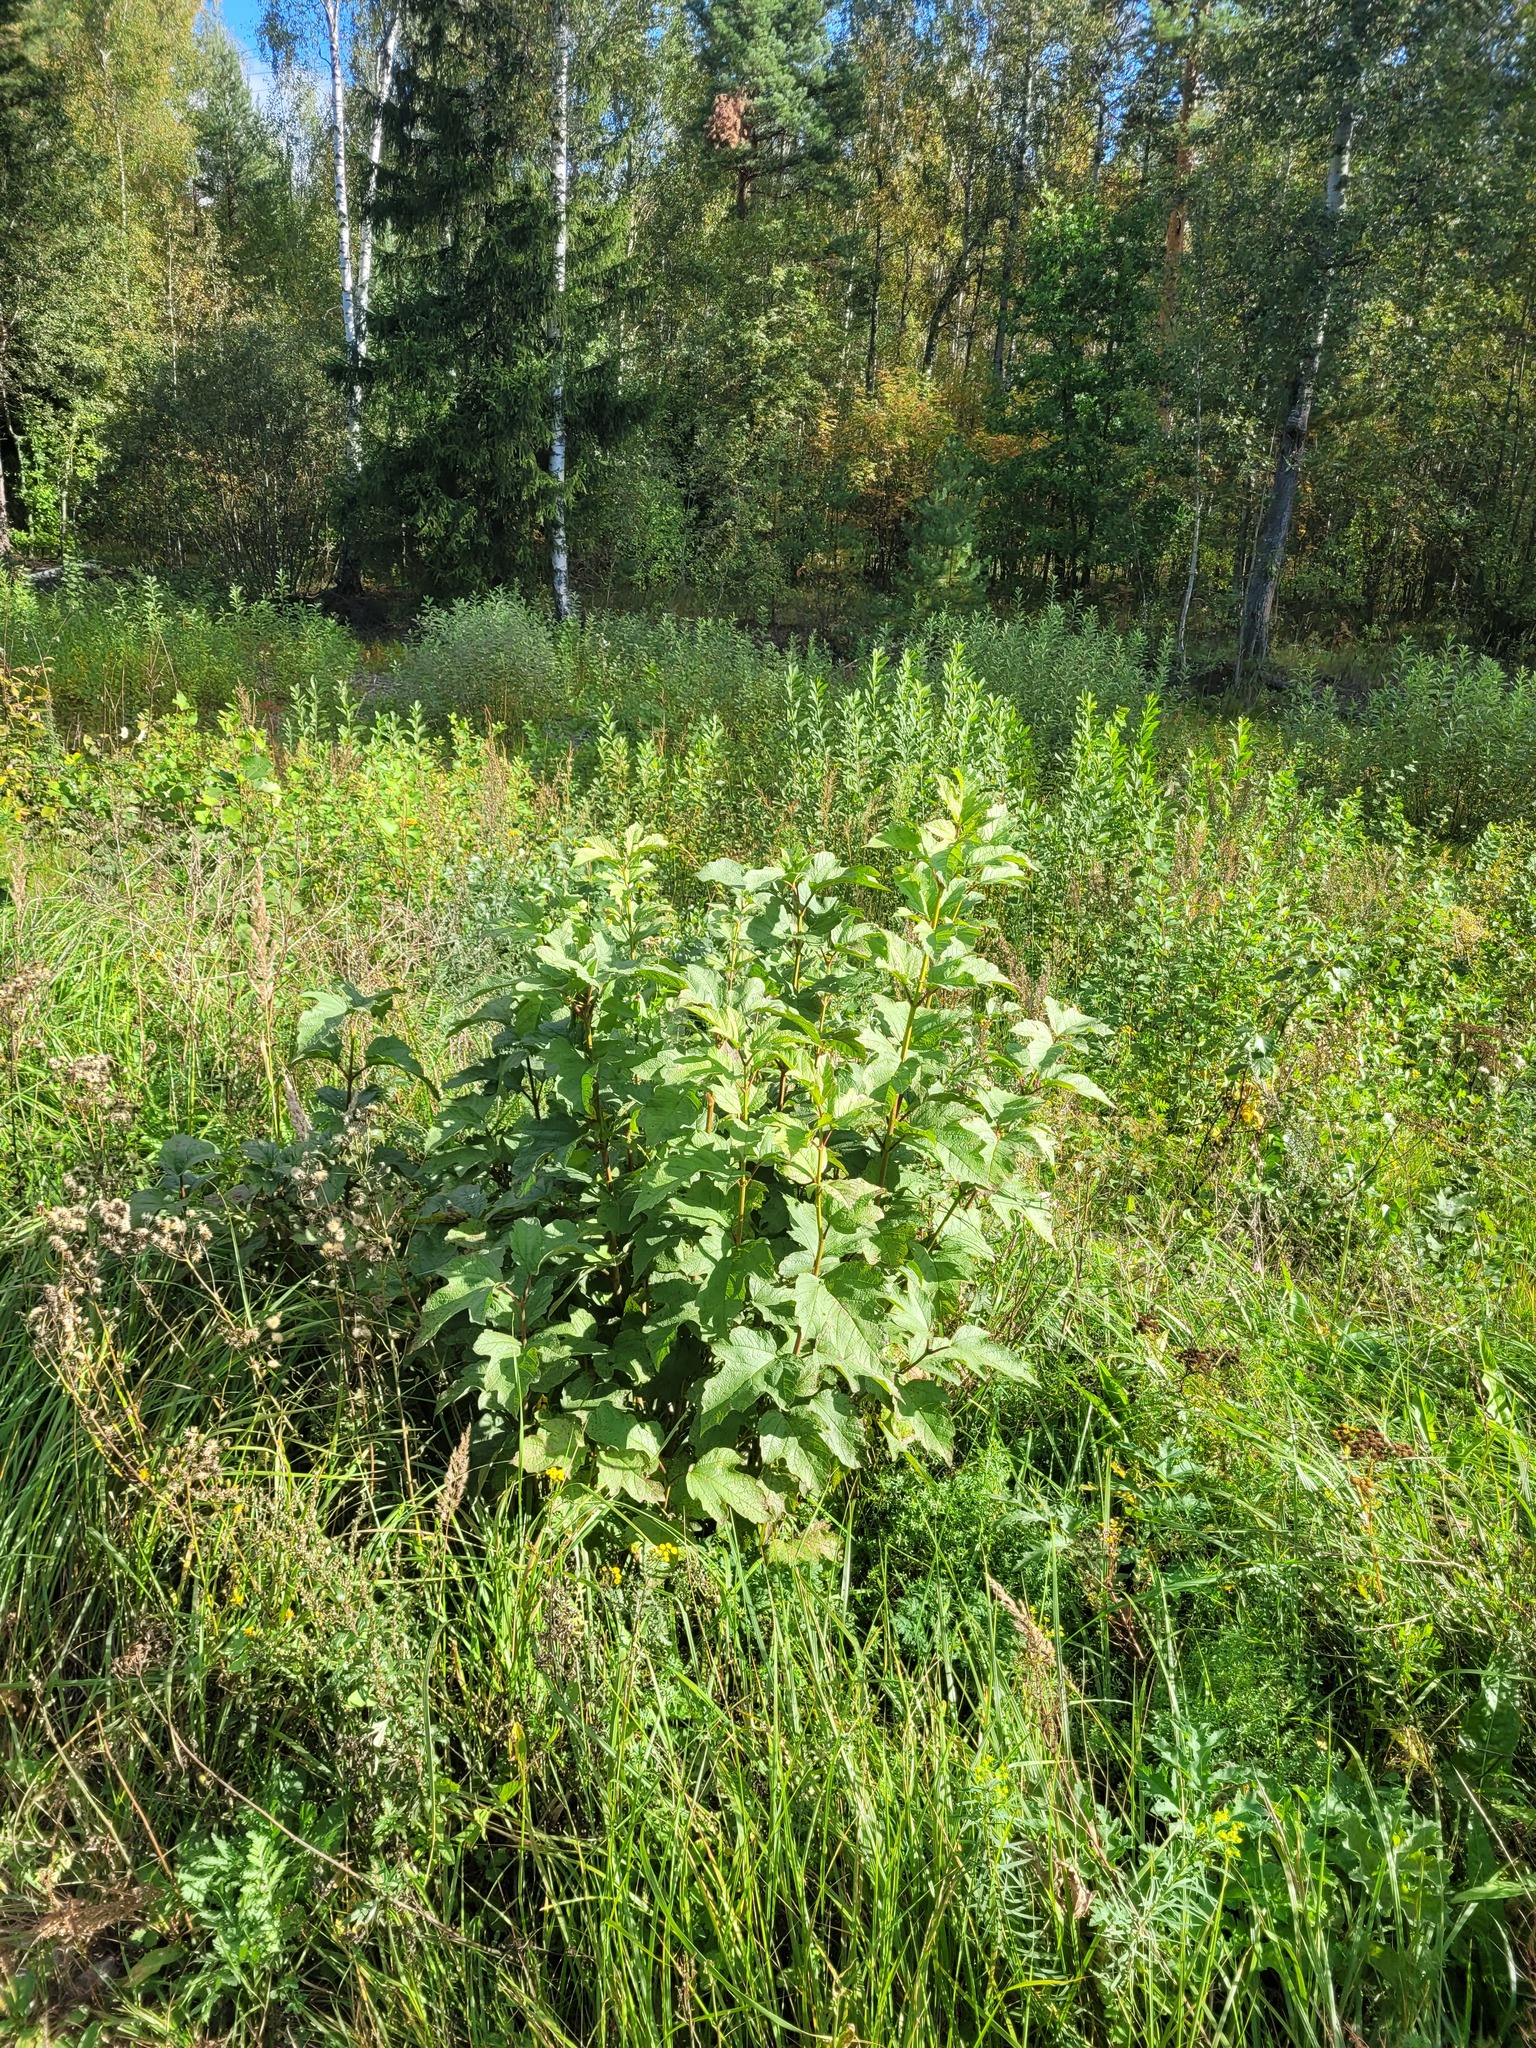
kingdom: Plantae
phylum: Tracheophyta
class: Magnoliopsida
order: Dipsacales
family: Viburnaceae
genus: Viburnum
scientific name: Viburnum opulus
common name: Guelder-rose
